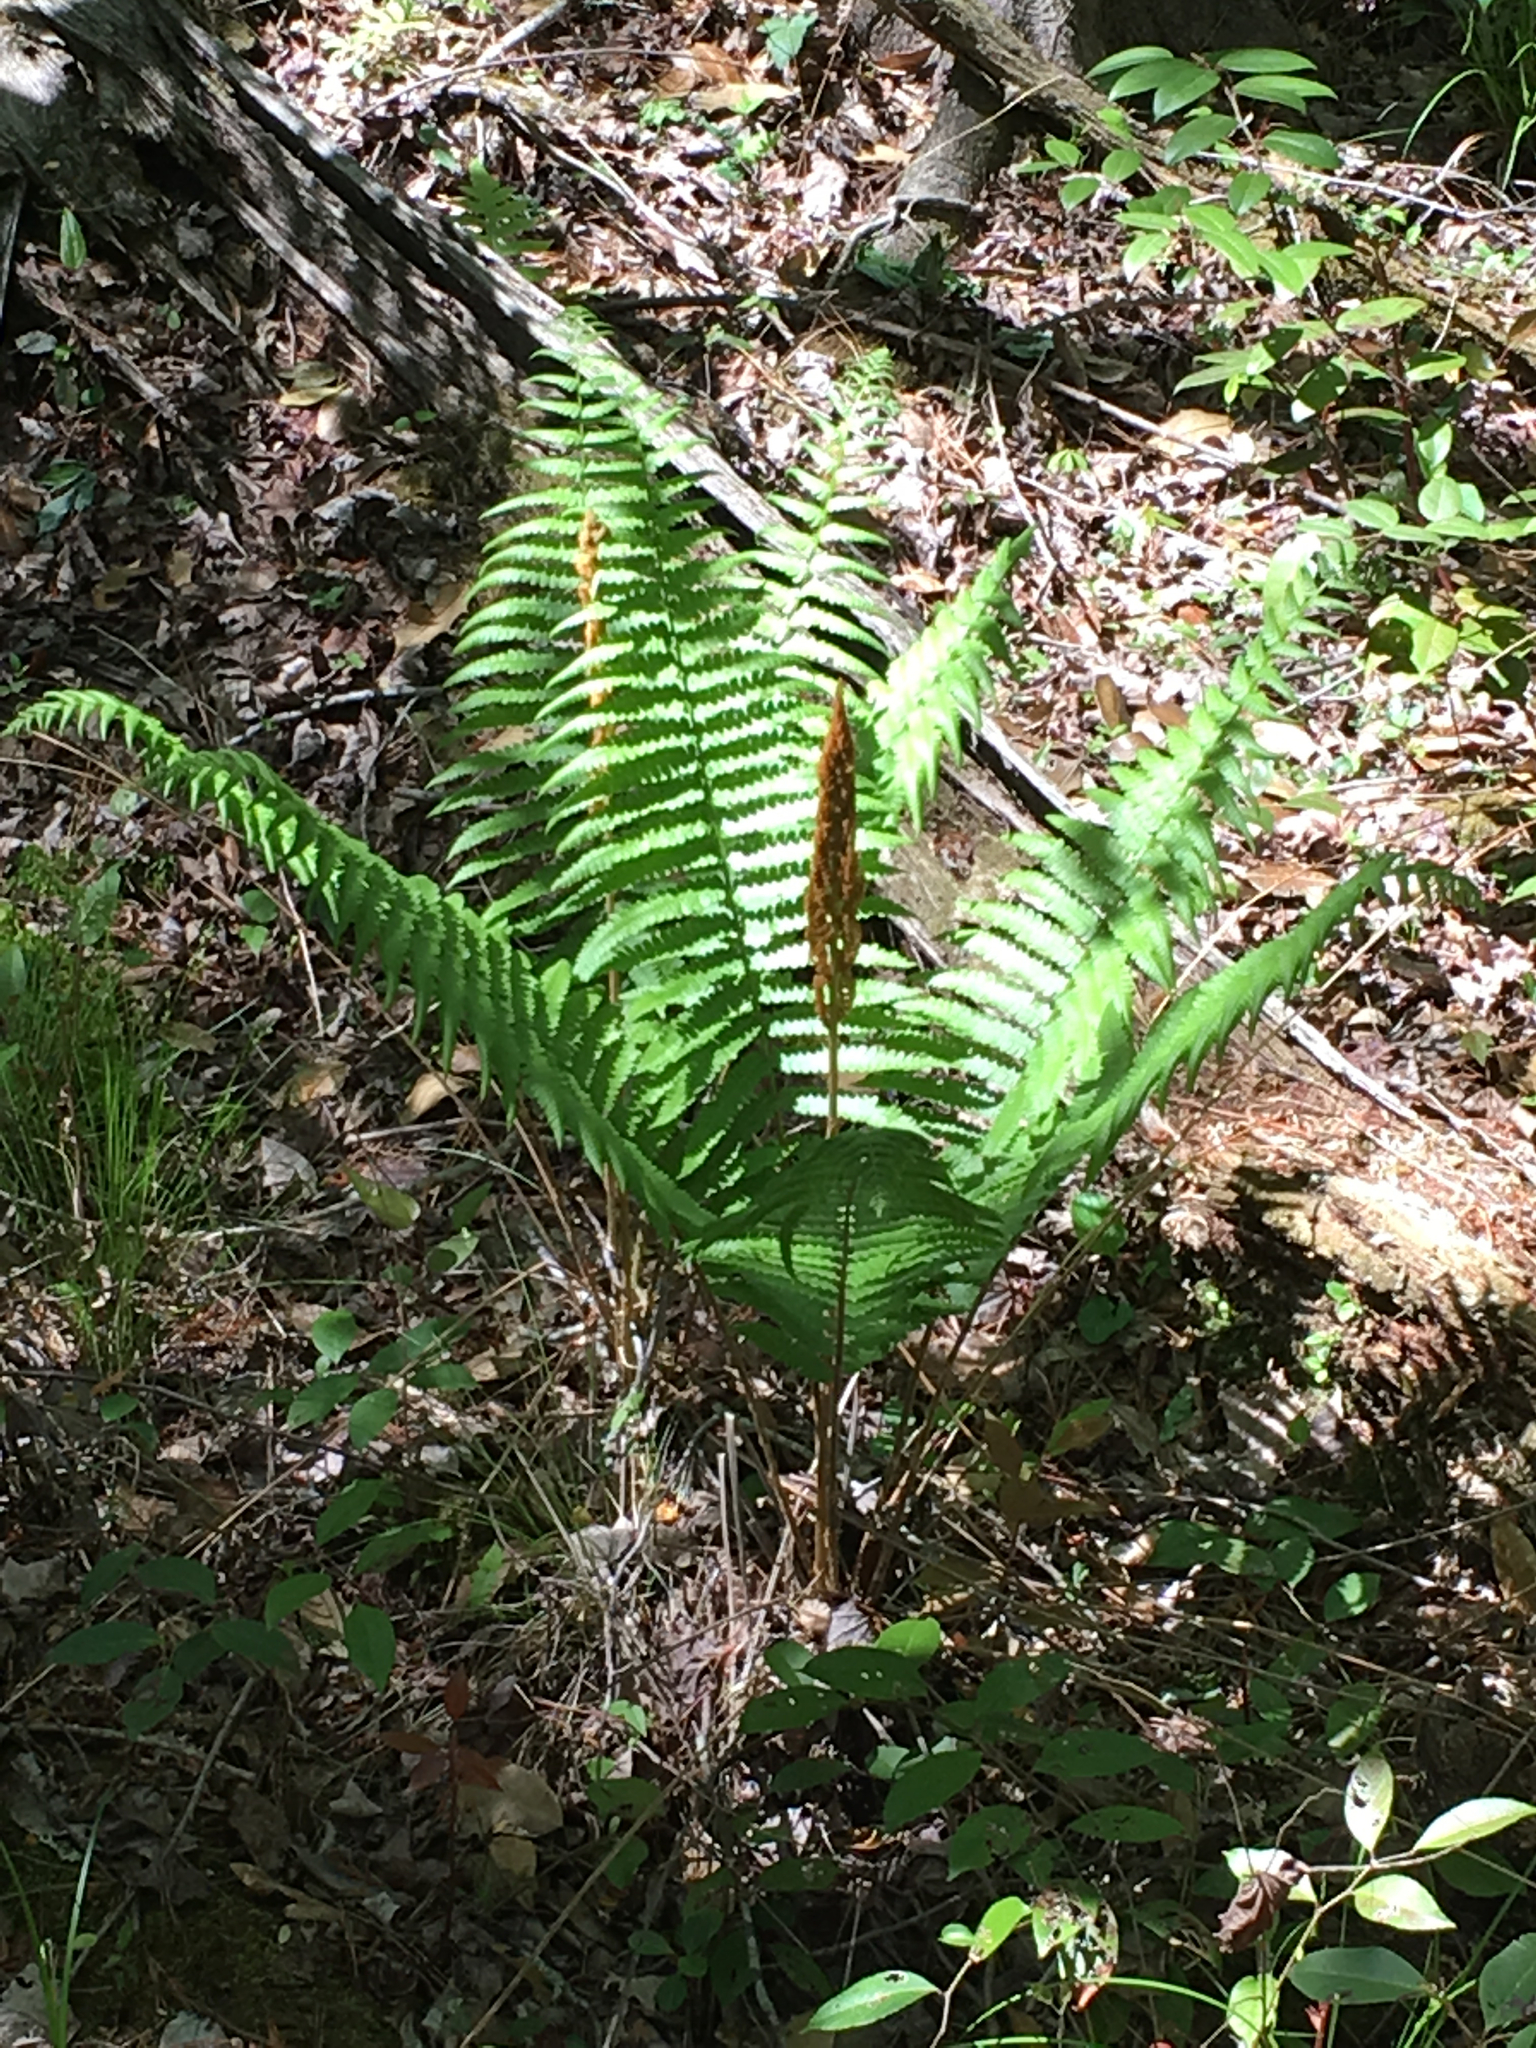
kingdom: Plantae
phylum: Tracheophyta
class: Polypodiopsida
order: Osmundales
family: Osmundaceae
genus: Osmundastrum
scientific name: Osmundastrum cinnamomeum
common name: Cinnamon fern
